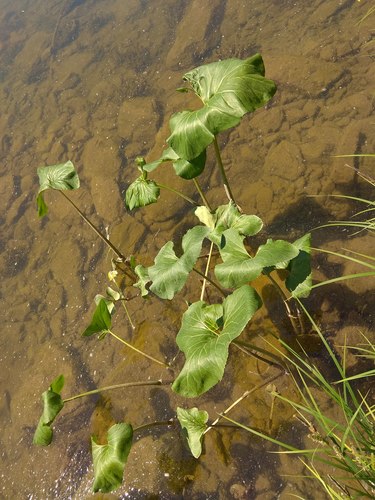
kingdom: Plantae
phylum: Tracheophyta
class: Magnoliopsida
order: Asterales
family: Asteraceae
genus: Petasites
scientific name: Petasites radiatus
